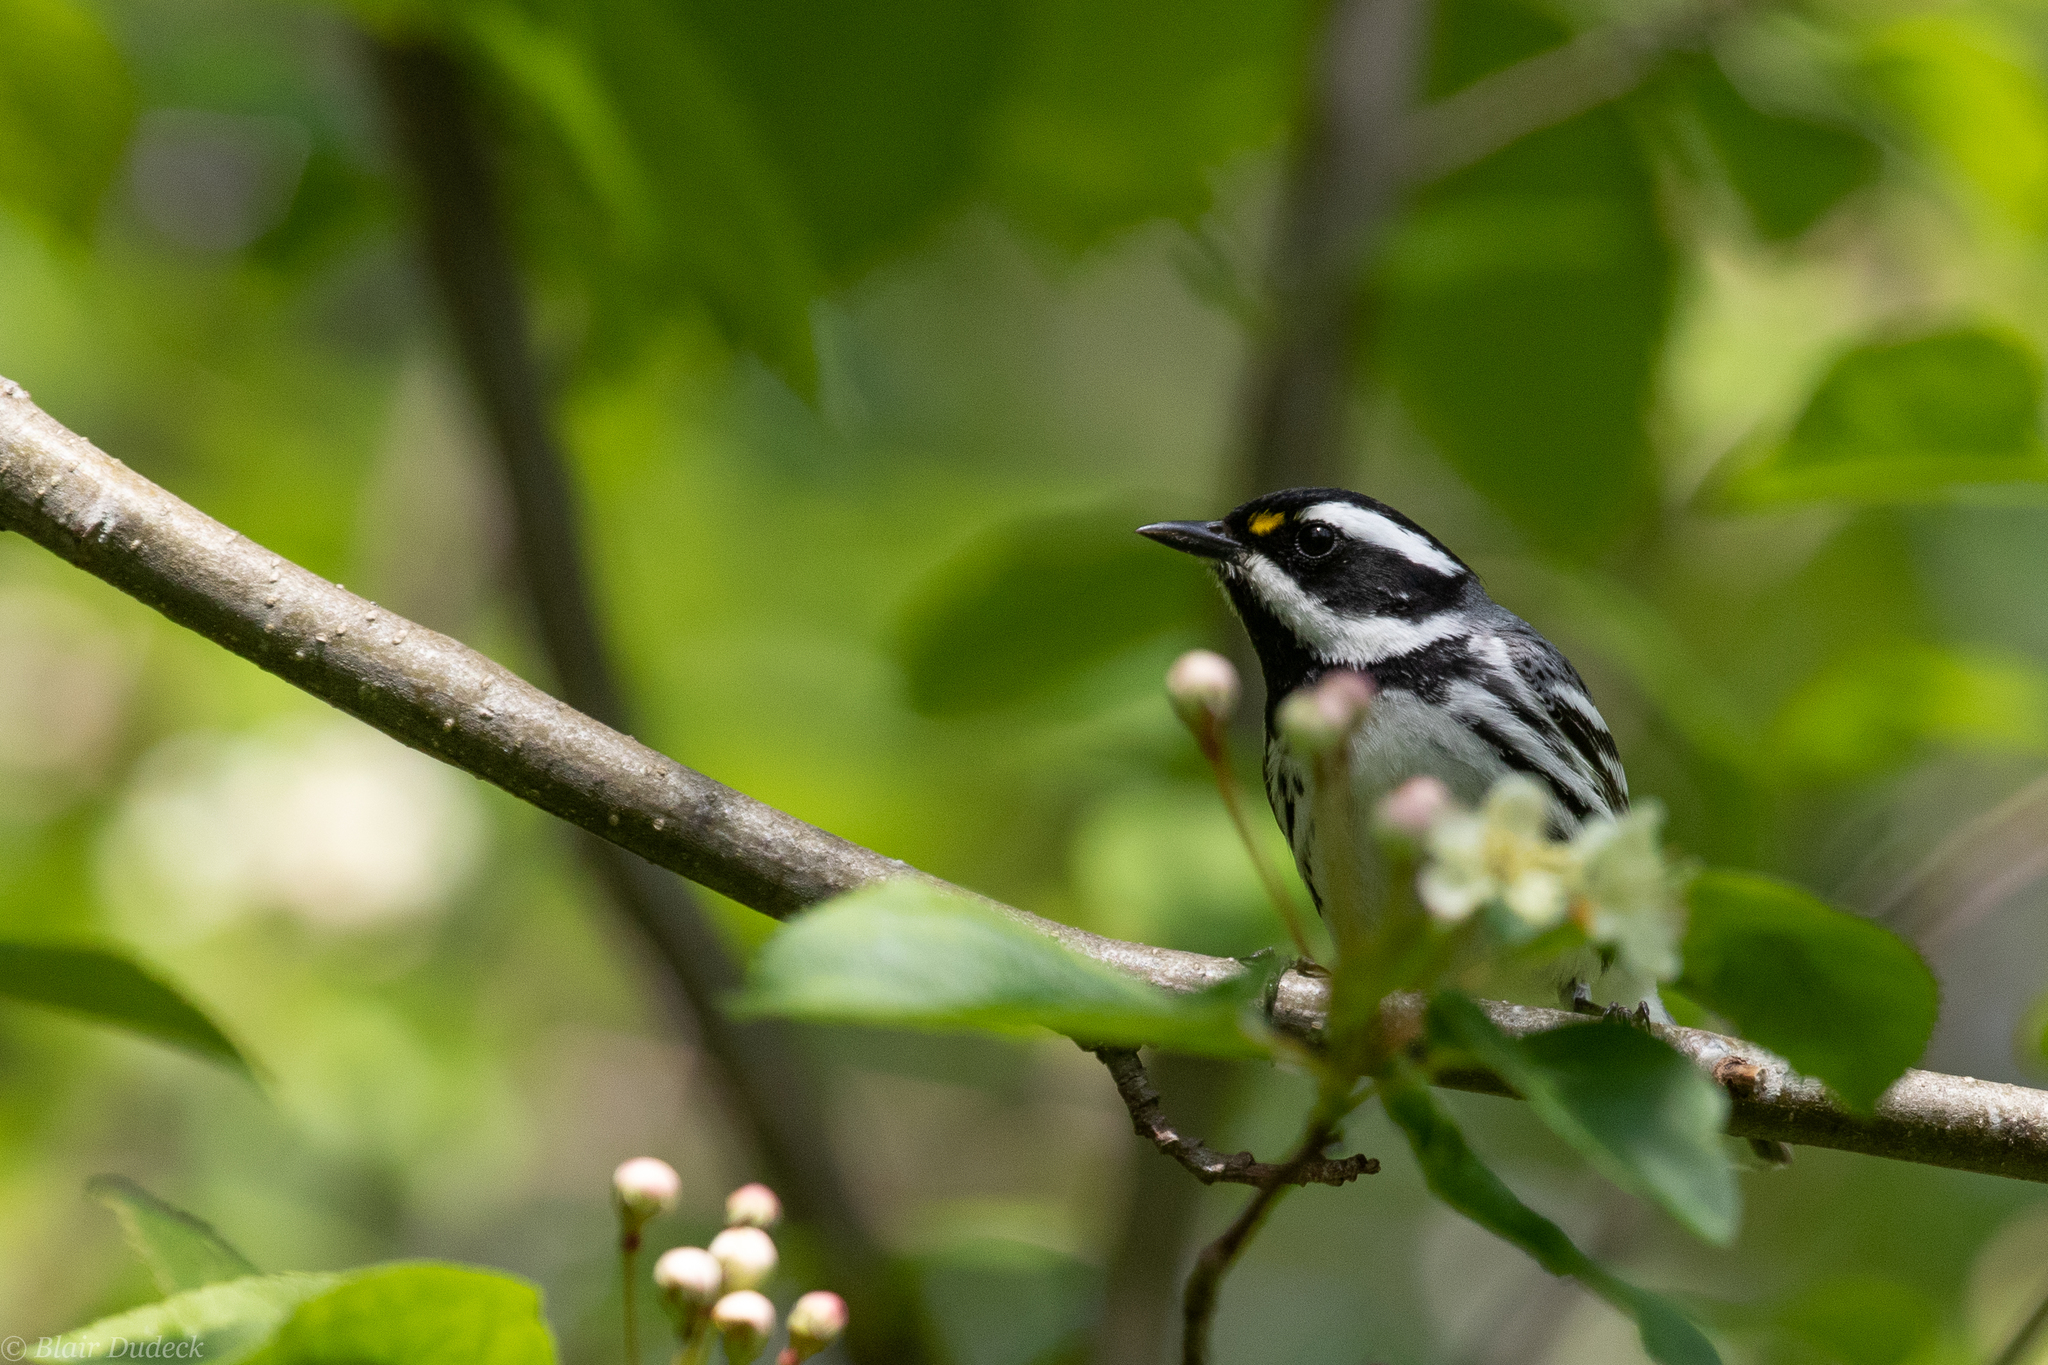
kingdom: Animalia
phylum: Chordata
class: Aves
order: Passeriformes
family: Parulidae
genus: Setophaga
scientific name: Setophaga nigrescens
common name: Black-throated gray warbler
